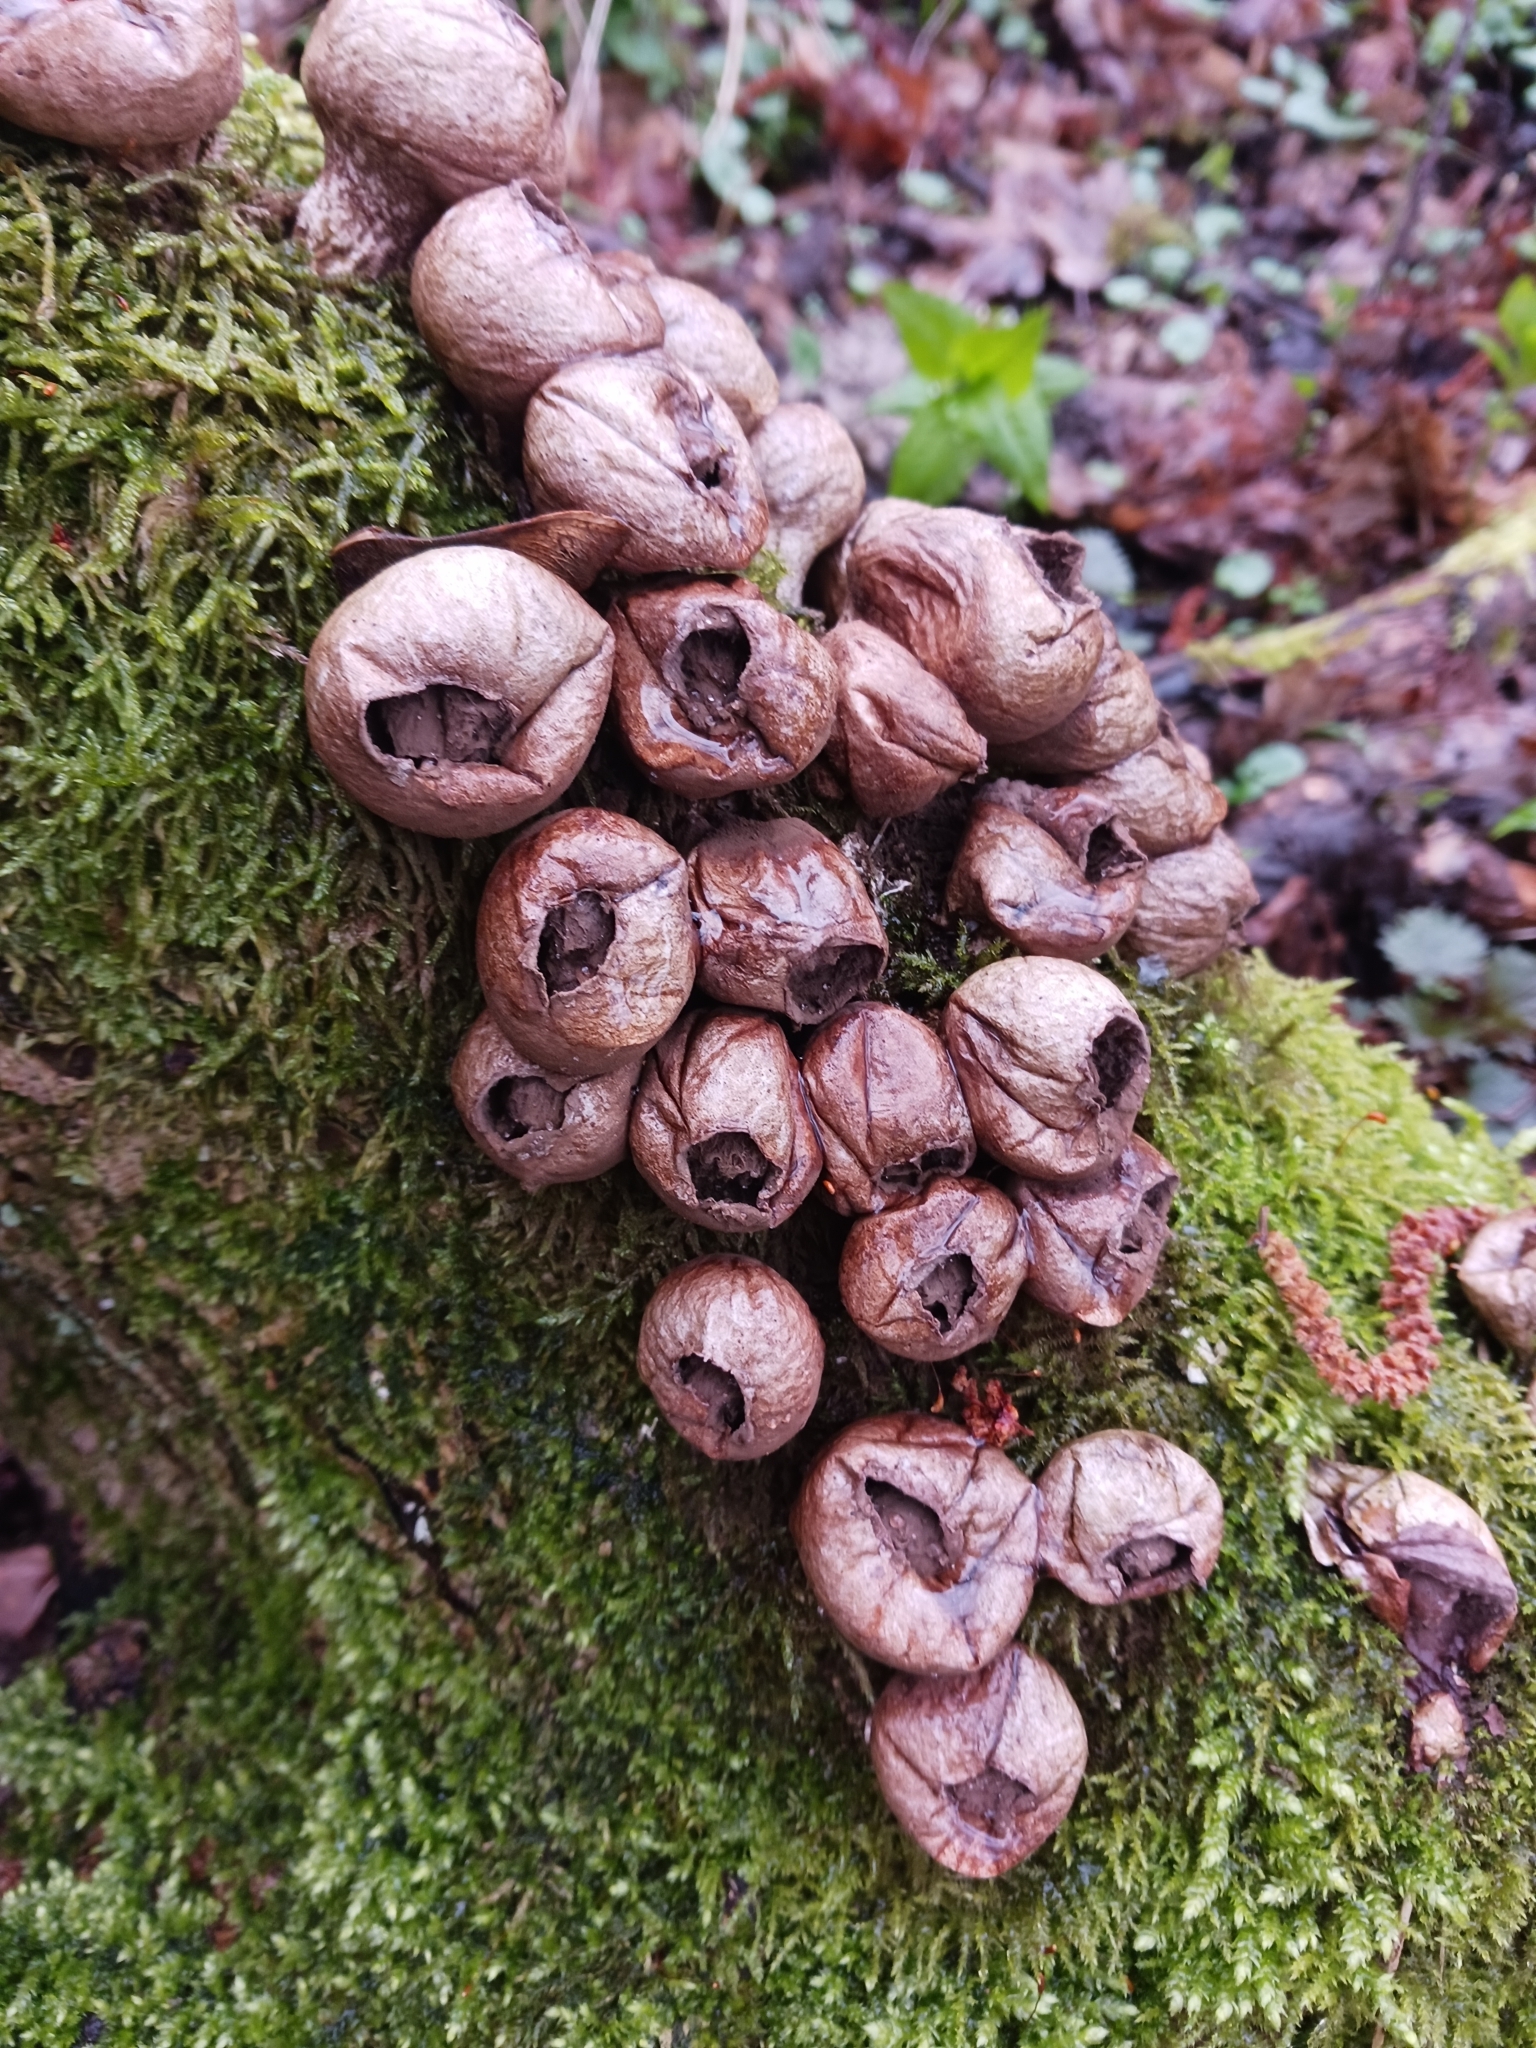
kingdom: Fungi
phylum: Basidiomycota
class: Agaricomycetes
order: Agaricales
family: Lycoperdaceae
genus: Apioperdon
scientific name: Apioperdon pyriforme
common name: Pear-shaped puffball
